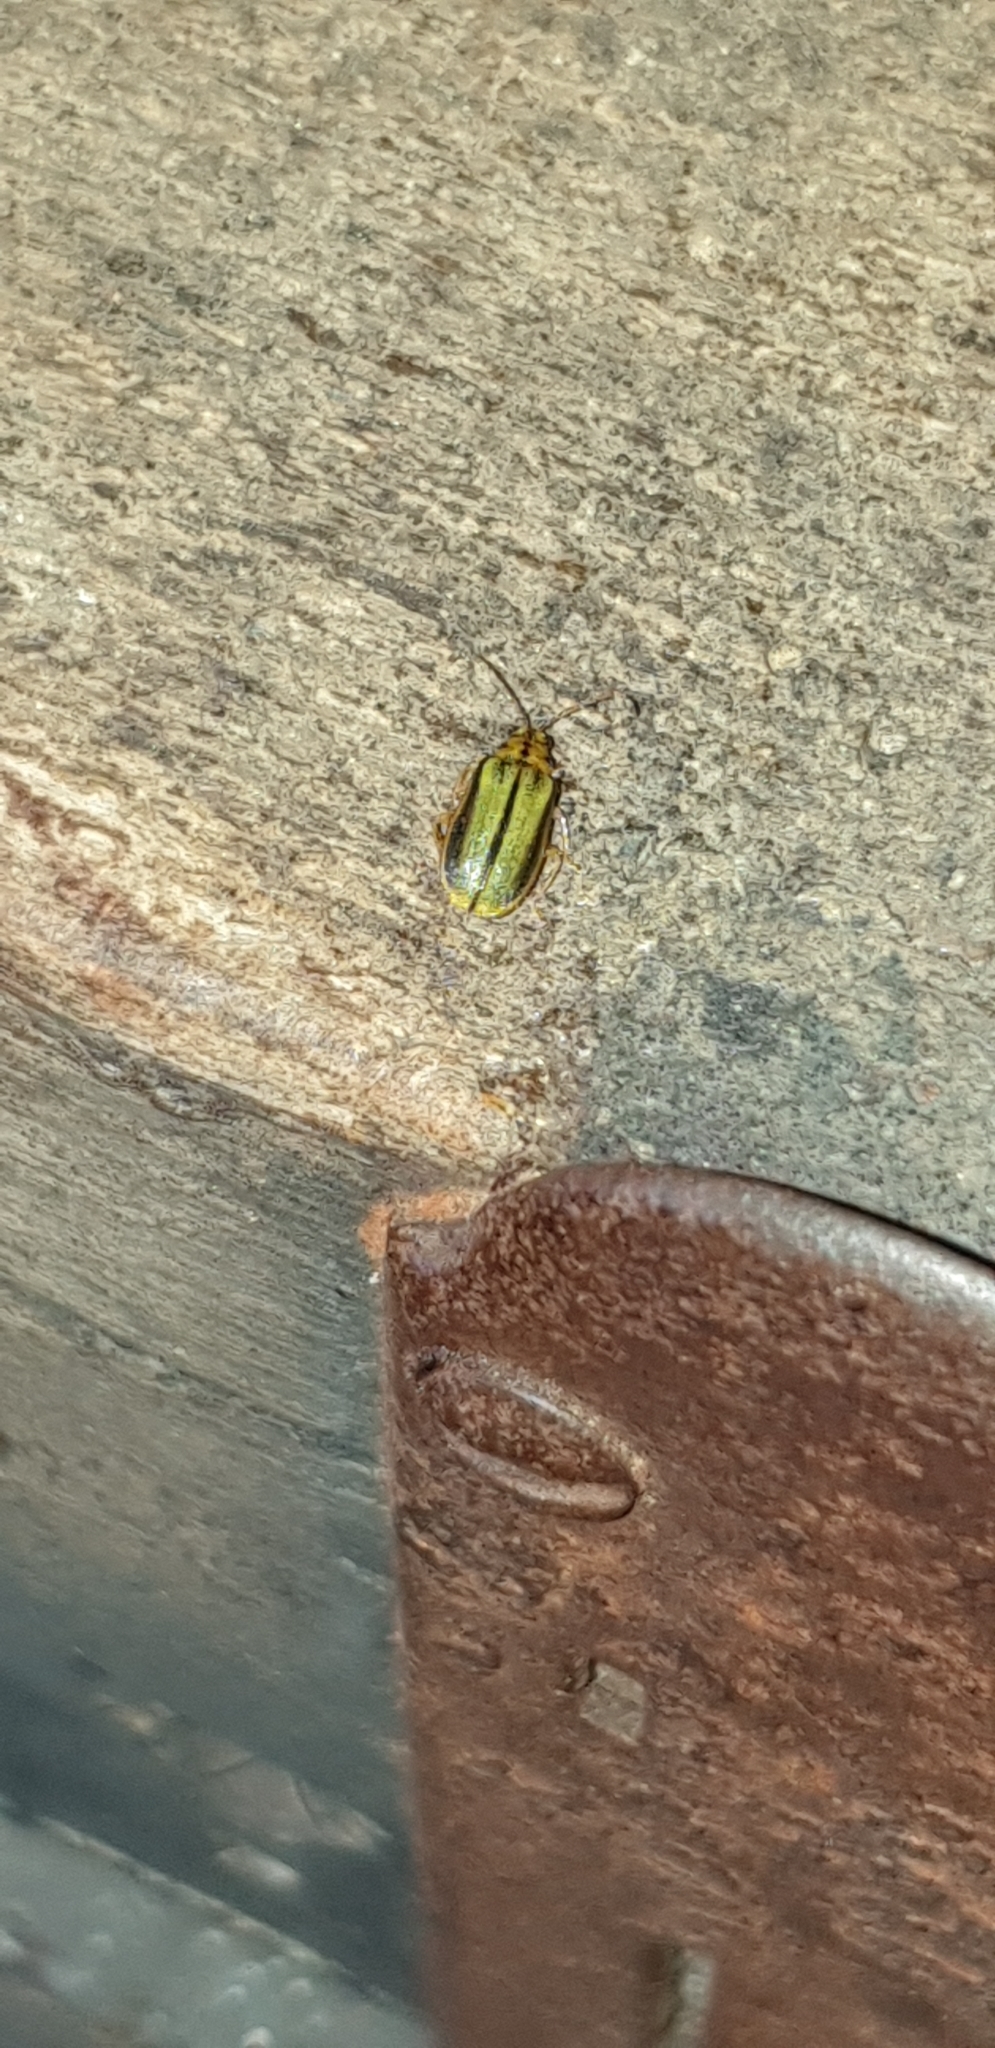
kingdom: Animalia
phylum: Arthropoda
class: Insecta
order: Coleoptera
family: Chrysomelidae
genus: Xanthogaleruca
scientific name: Xanthogaleruca luteola
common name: Elm leaf beetle
